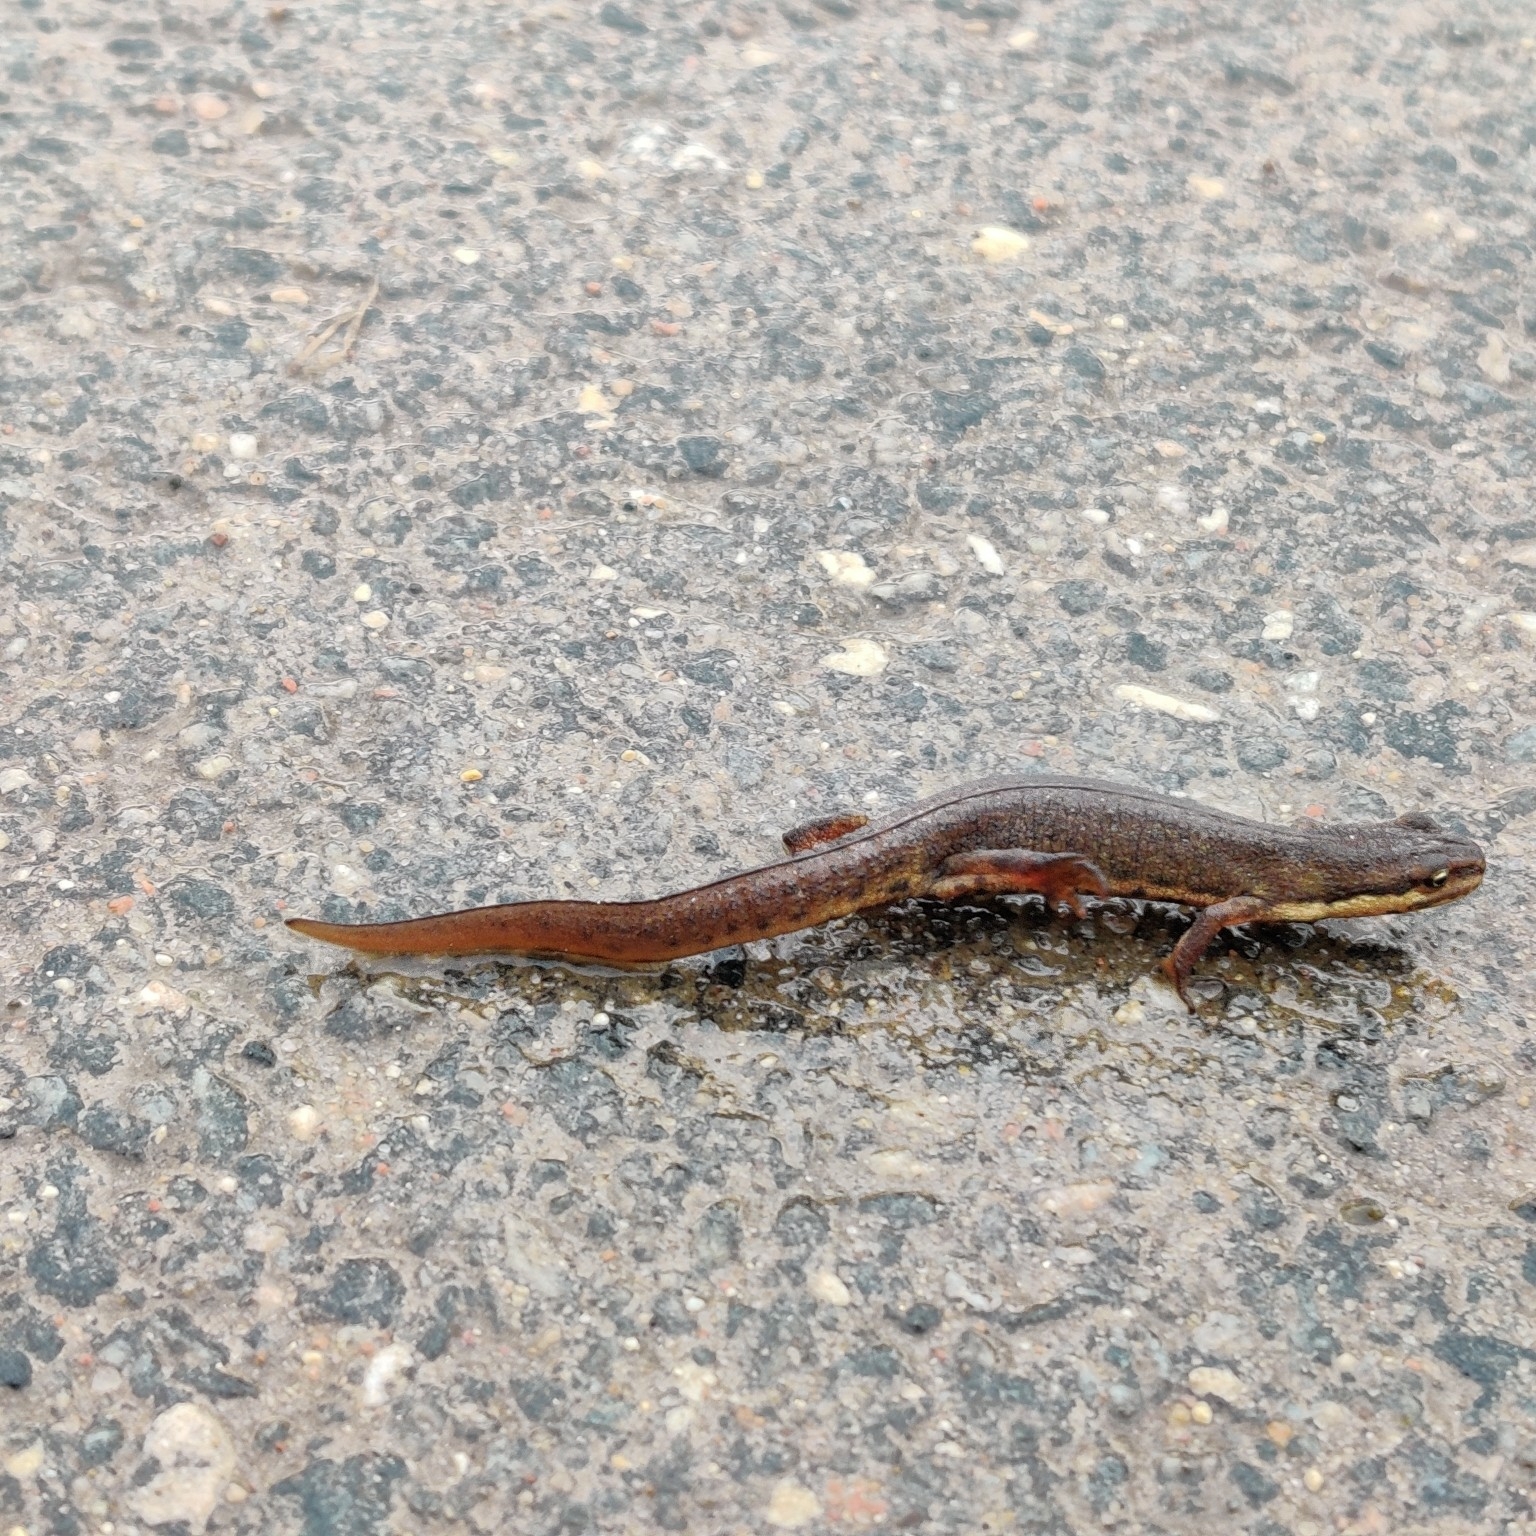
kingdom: Animalia
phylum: Chordata
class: Amphibia
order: Caudata
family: Salamandridae
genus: Lissotriton
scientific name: Lissotriton vulgaris
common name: Smooth newt
